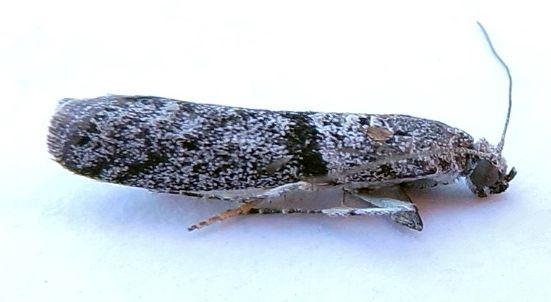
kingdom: Animalia
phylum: Arthropoda
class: Insecta
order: Lepidoptera
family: Pyralidae
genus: Myelopsis
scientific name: Myelopsis minutularia
